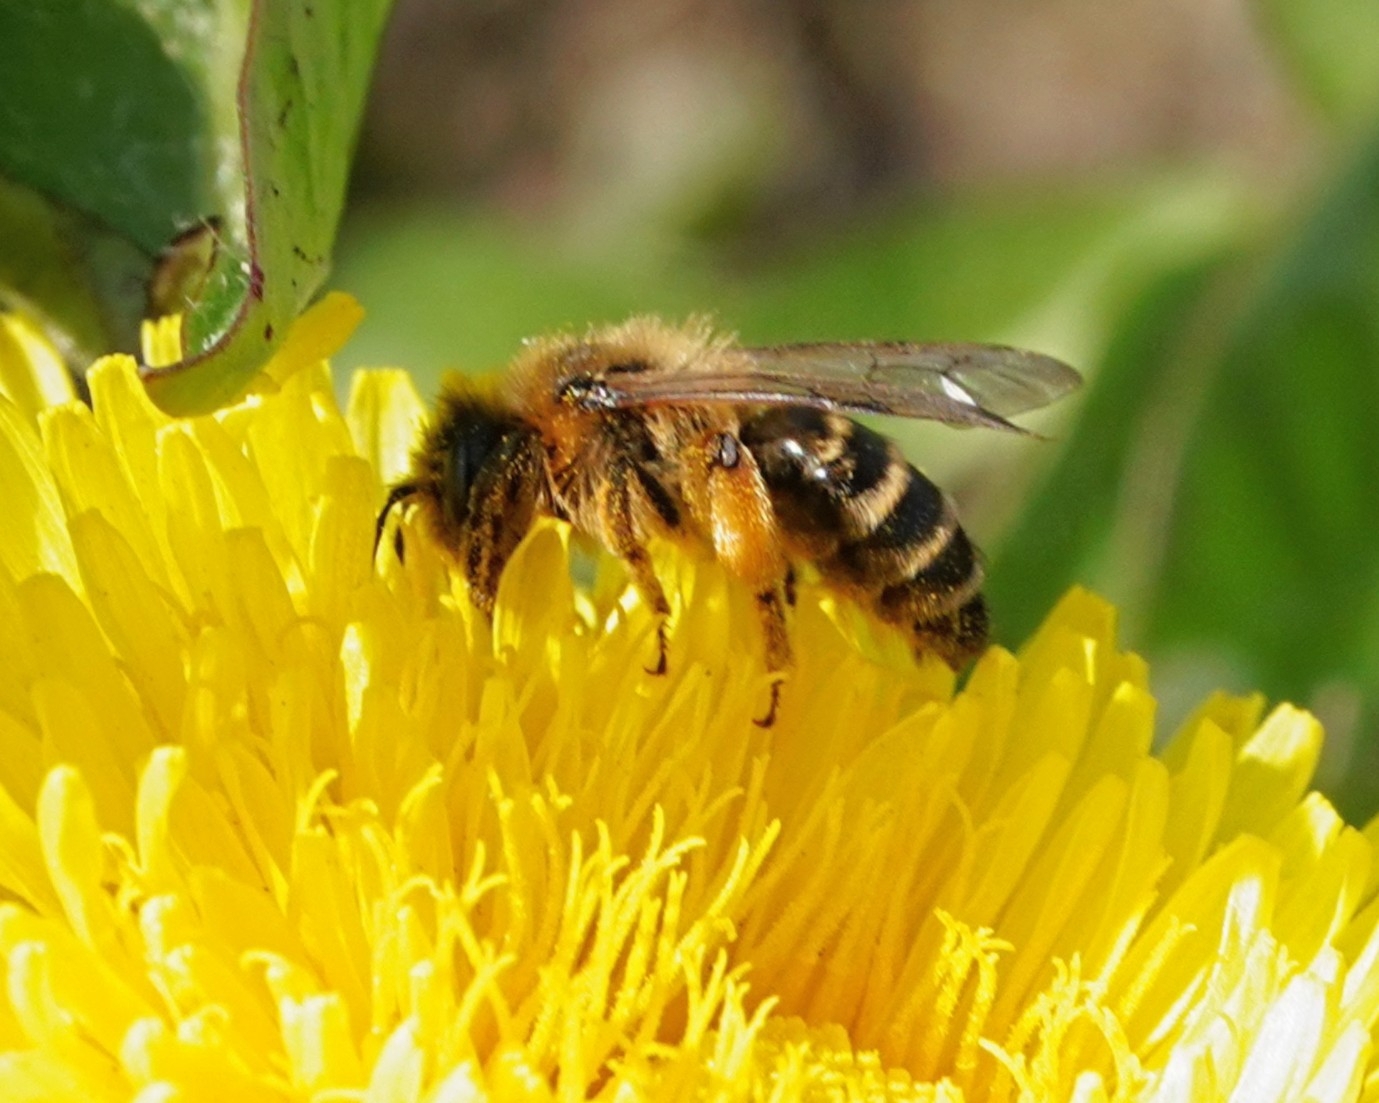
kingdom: Animalia
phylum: Arthropoda
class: Insecta
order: Hymenoptera
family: Andrenidae
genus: Andrena
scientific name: Andrena flavipes
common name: Yellow-legged mining bee
